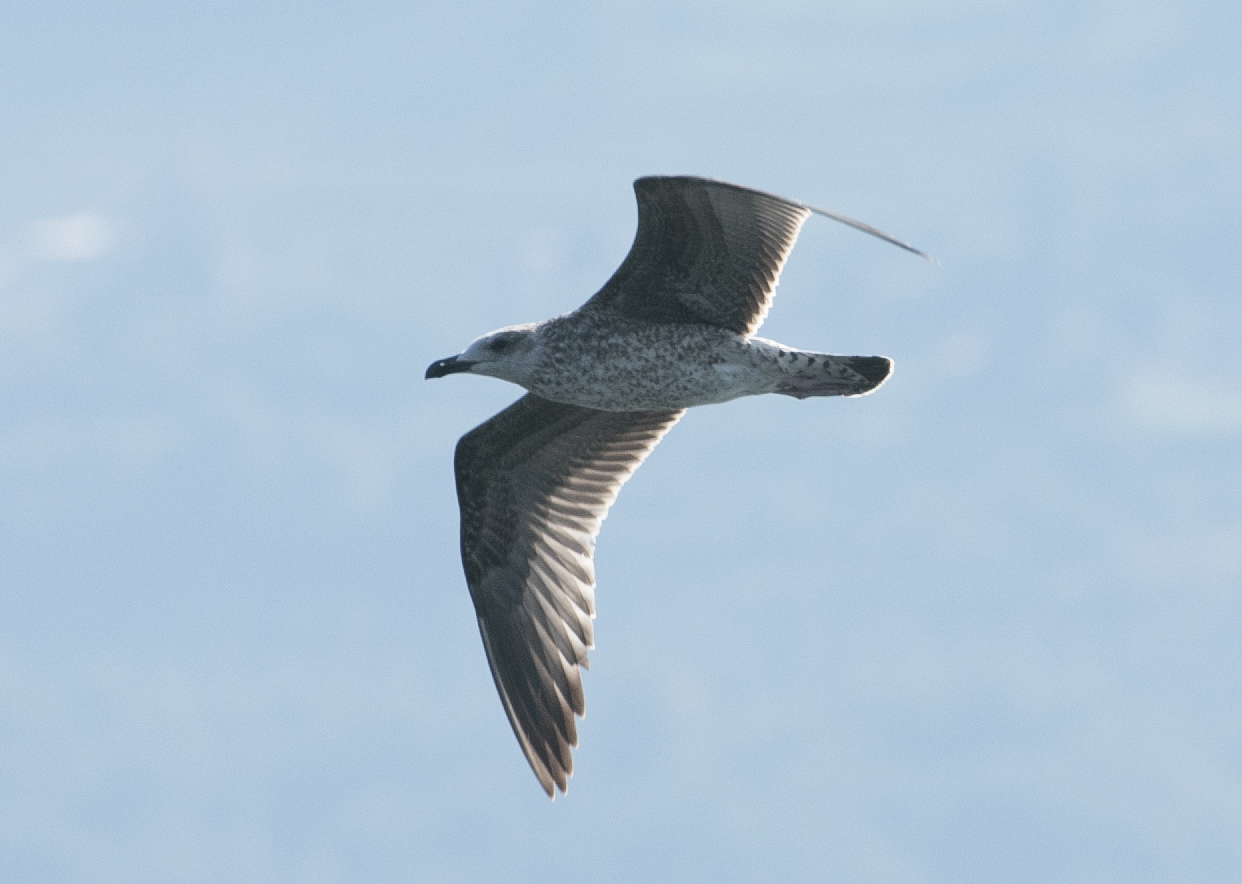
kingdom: Animalia
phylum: Chordata
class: Aves
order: Charadriiformes
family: Laridae
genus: Larus
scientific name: Larus michahellis
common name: Yellow-legged gull
